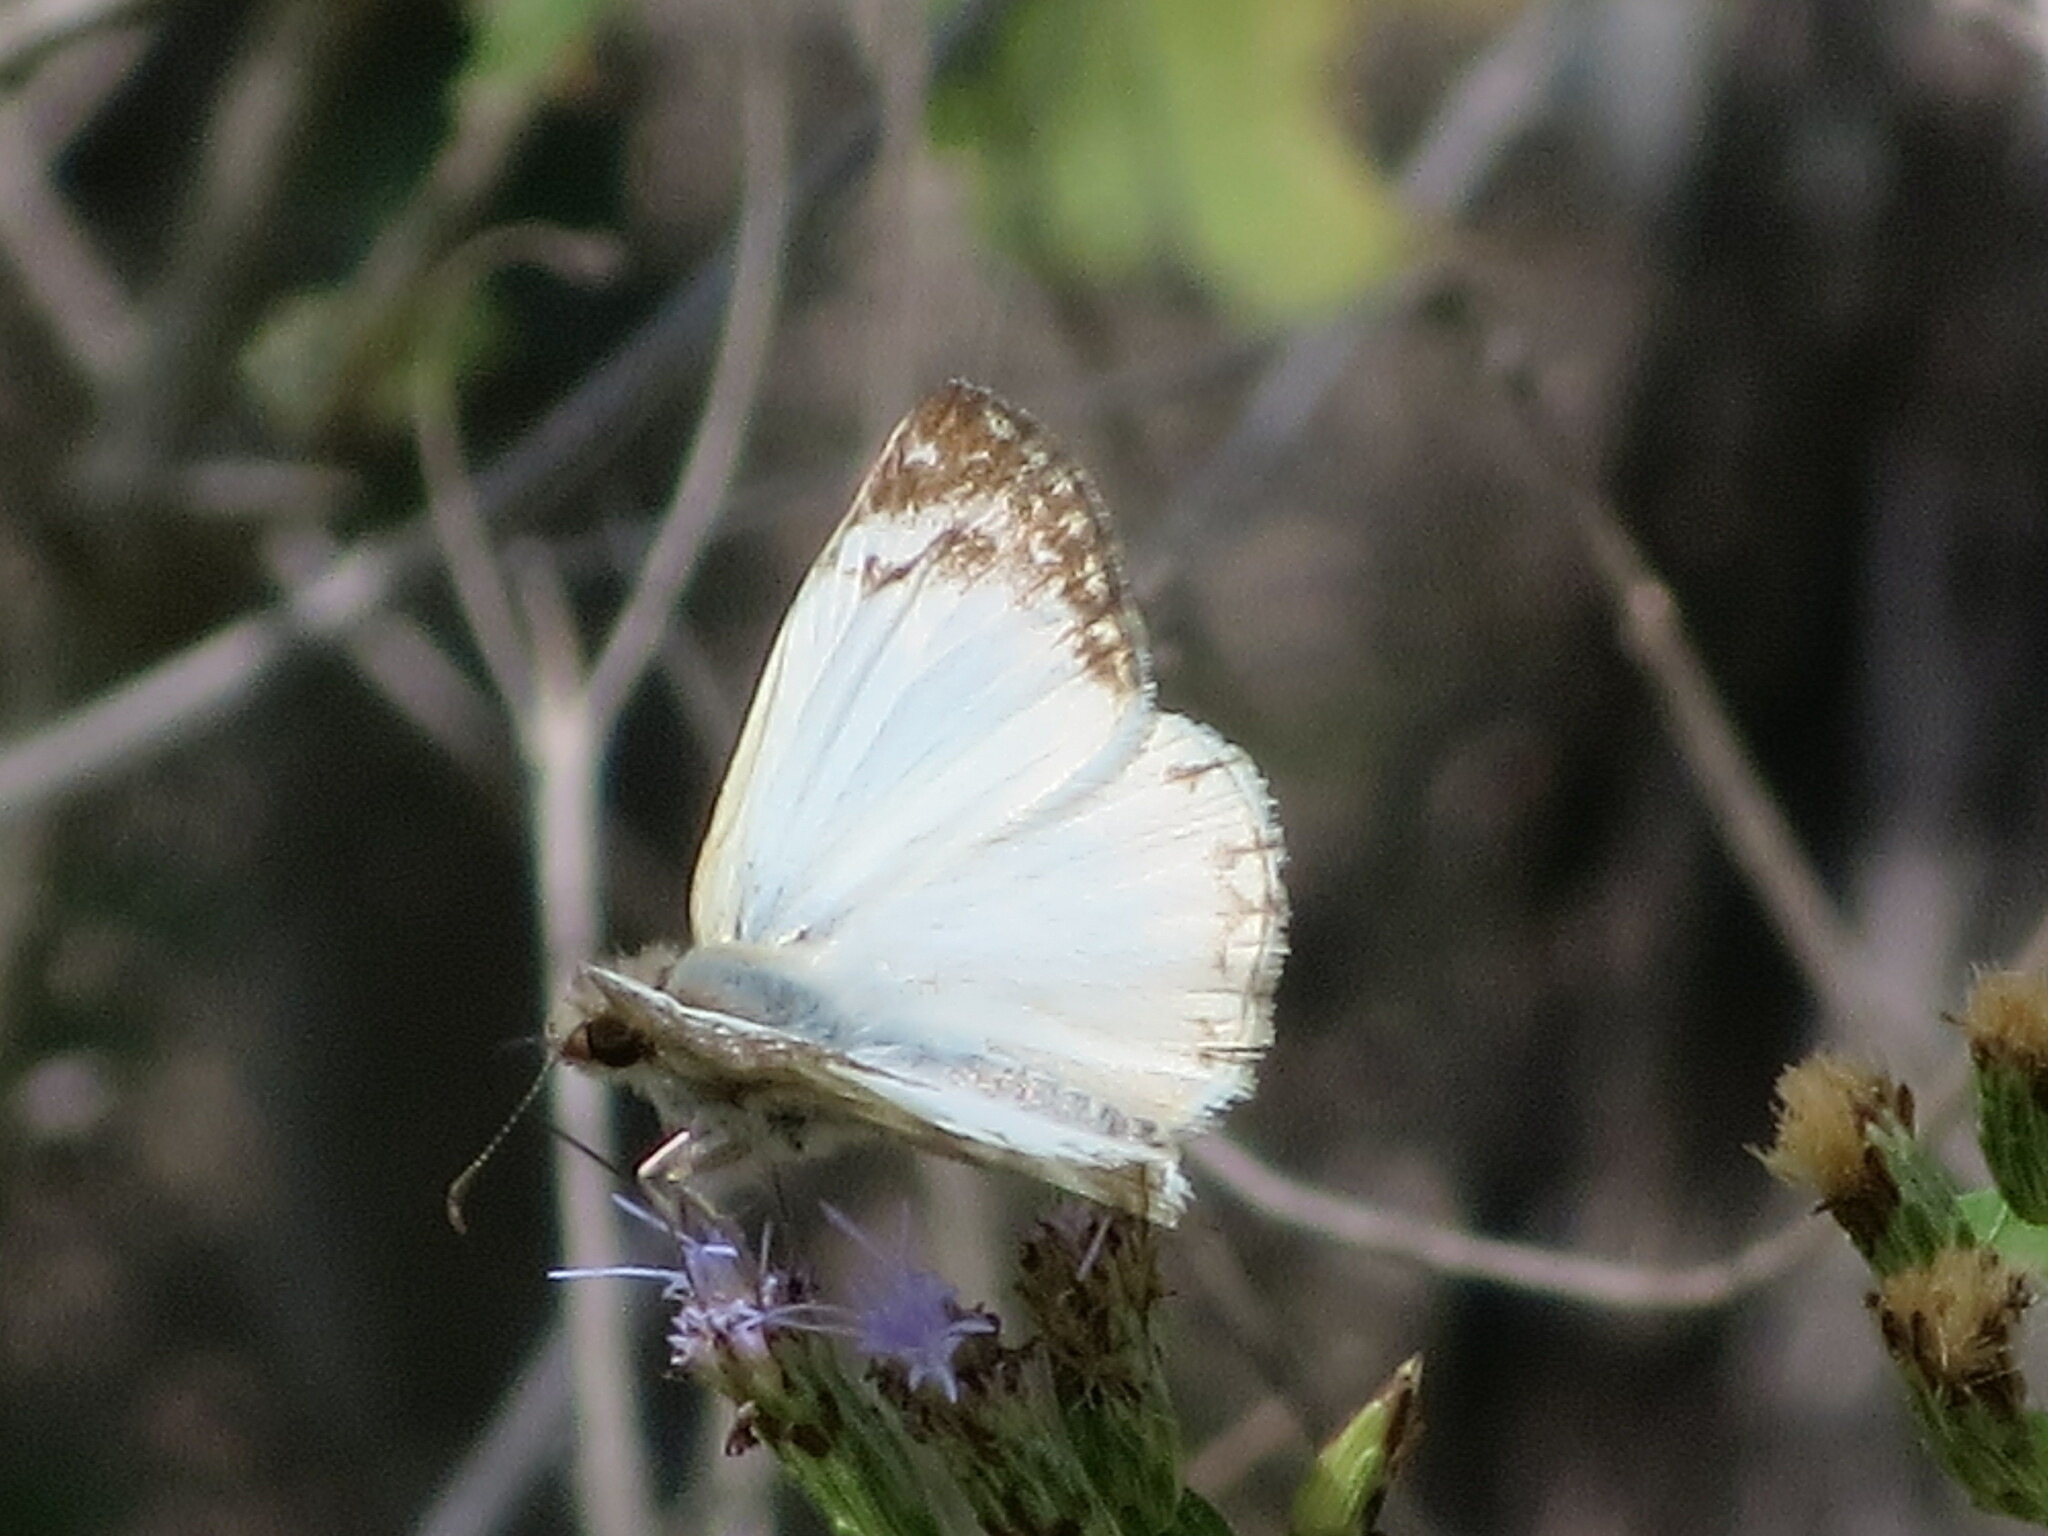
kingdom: Animalia
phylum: Arthropoda
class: Insecta
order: Lepidoptera
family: Hesperiidae
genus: Heliopetes
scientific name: Heliopetes laviana
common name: Laviana white-skipper
